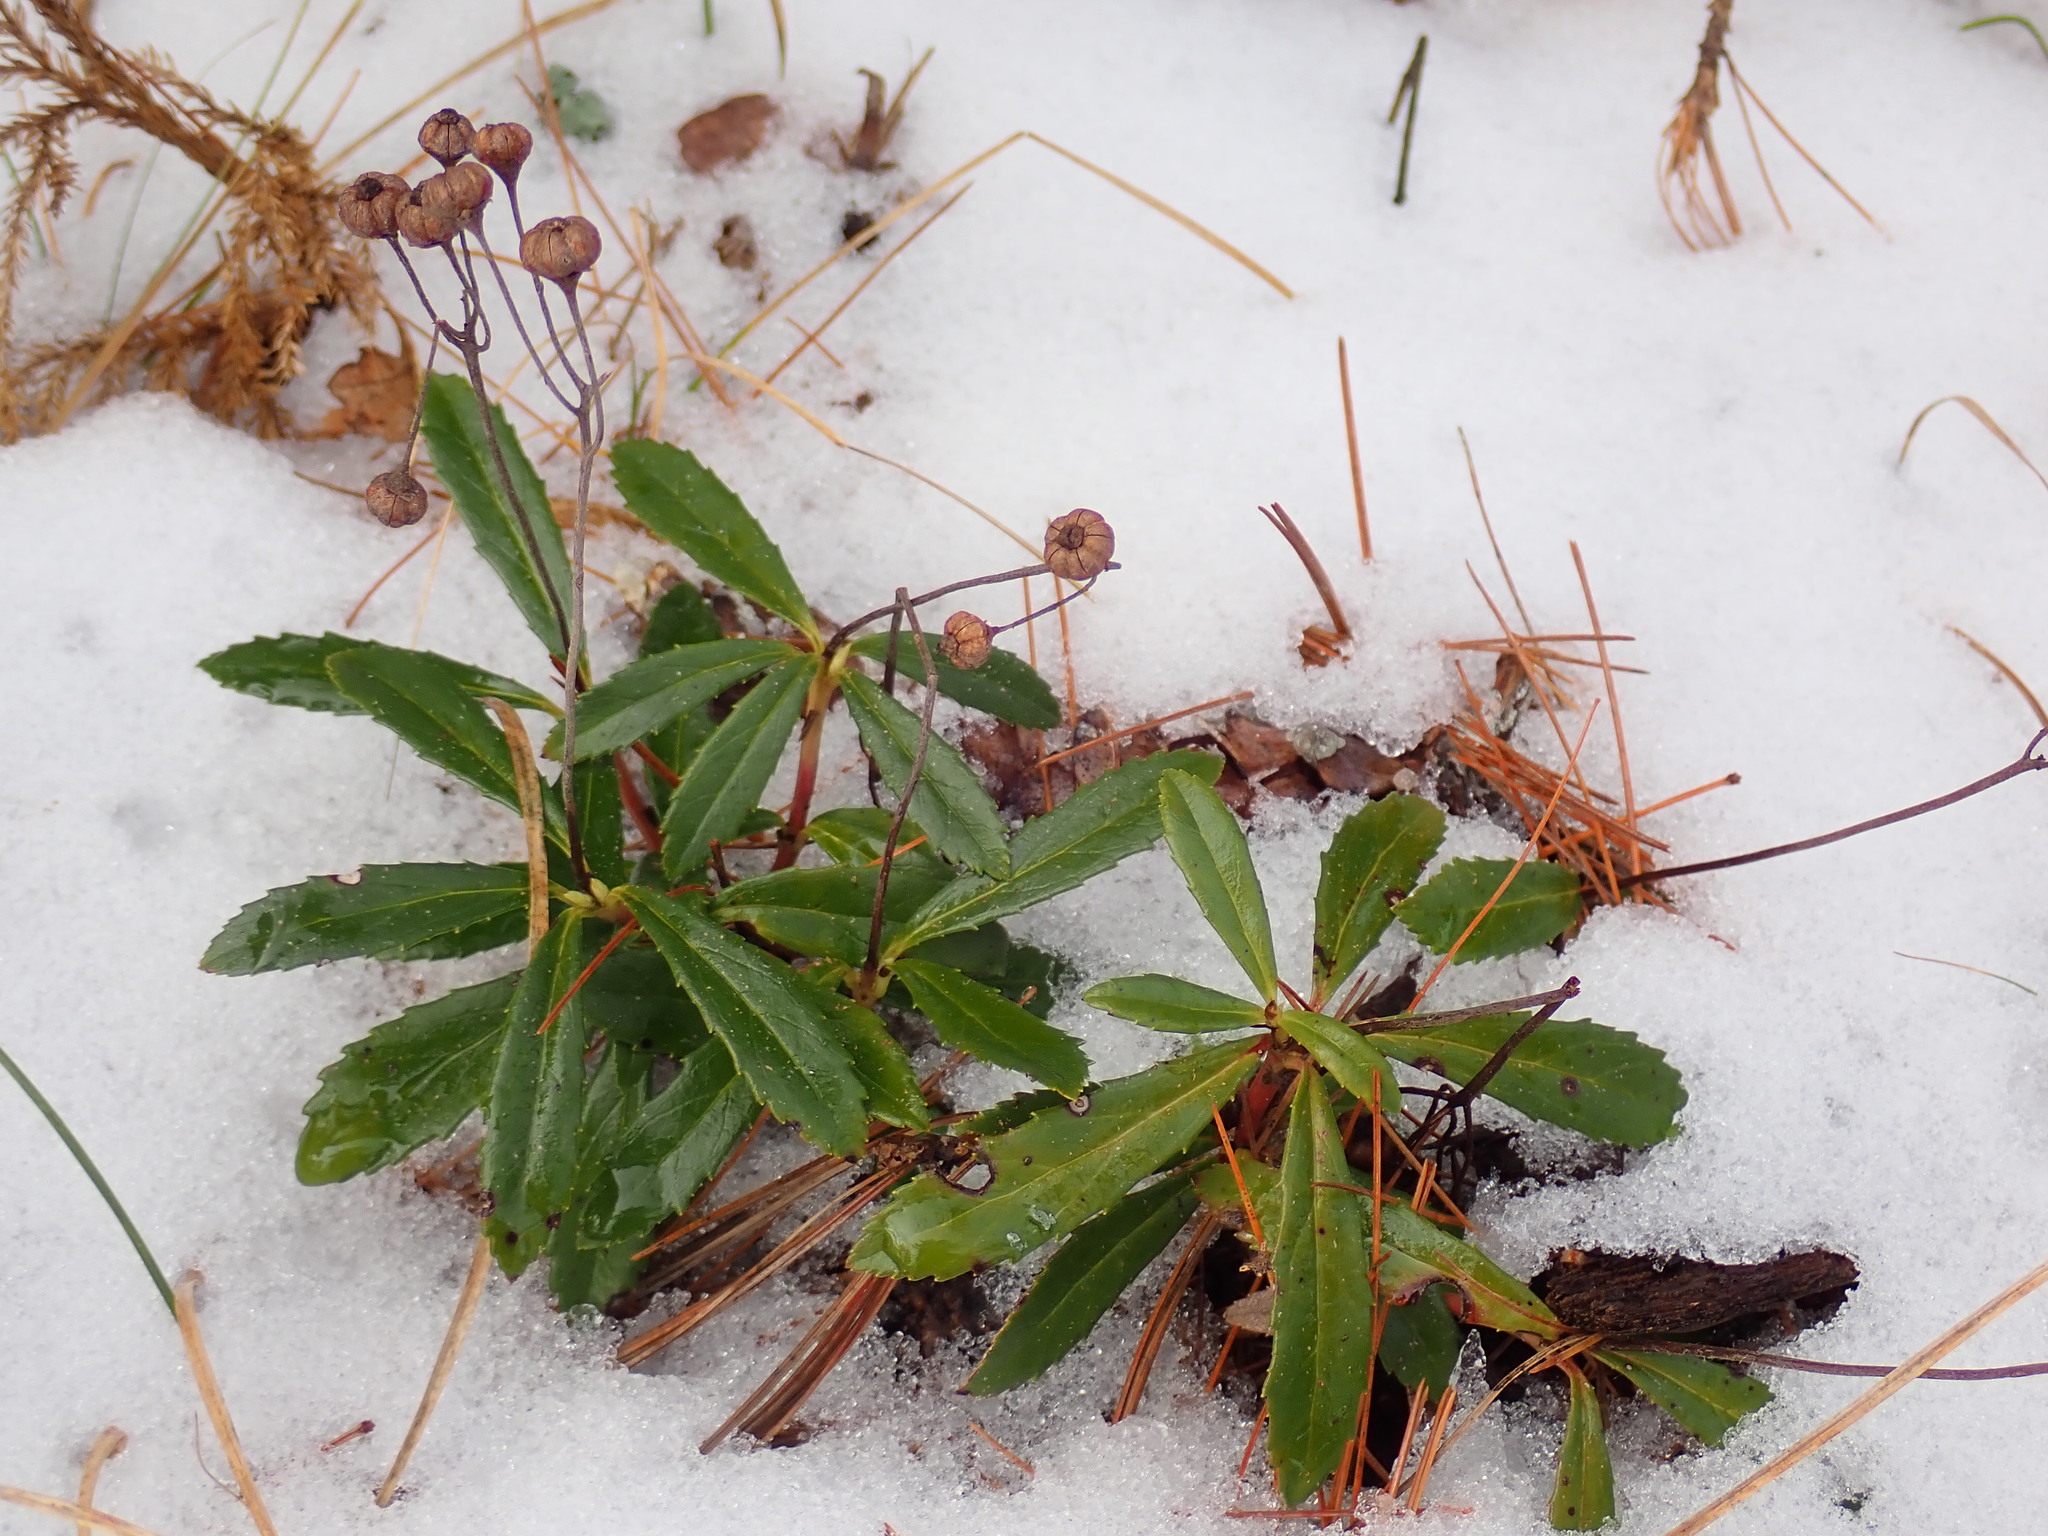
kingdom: Plantae
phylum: Tracheophyta
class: Magnoliopsida
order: Ericales
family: Ericaceae
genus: Chimaphila
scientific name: Chimaphila umbellata
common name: Pipsissewa
